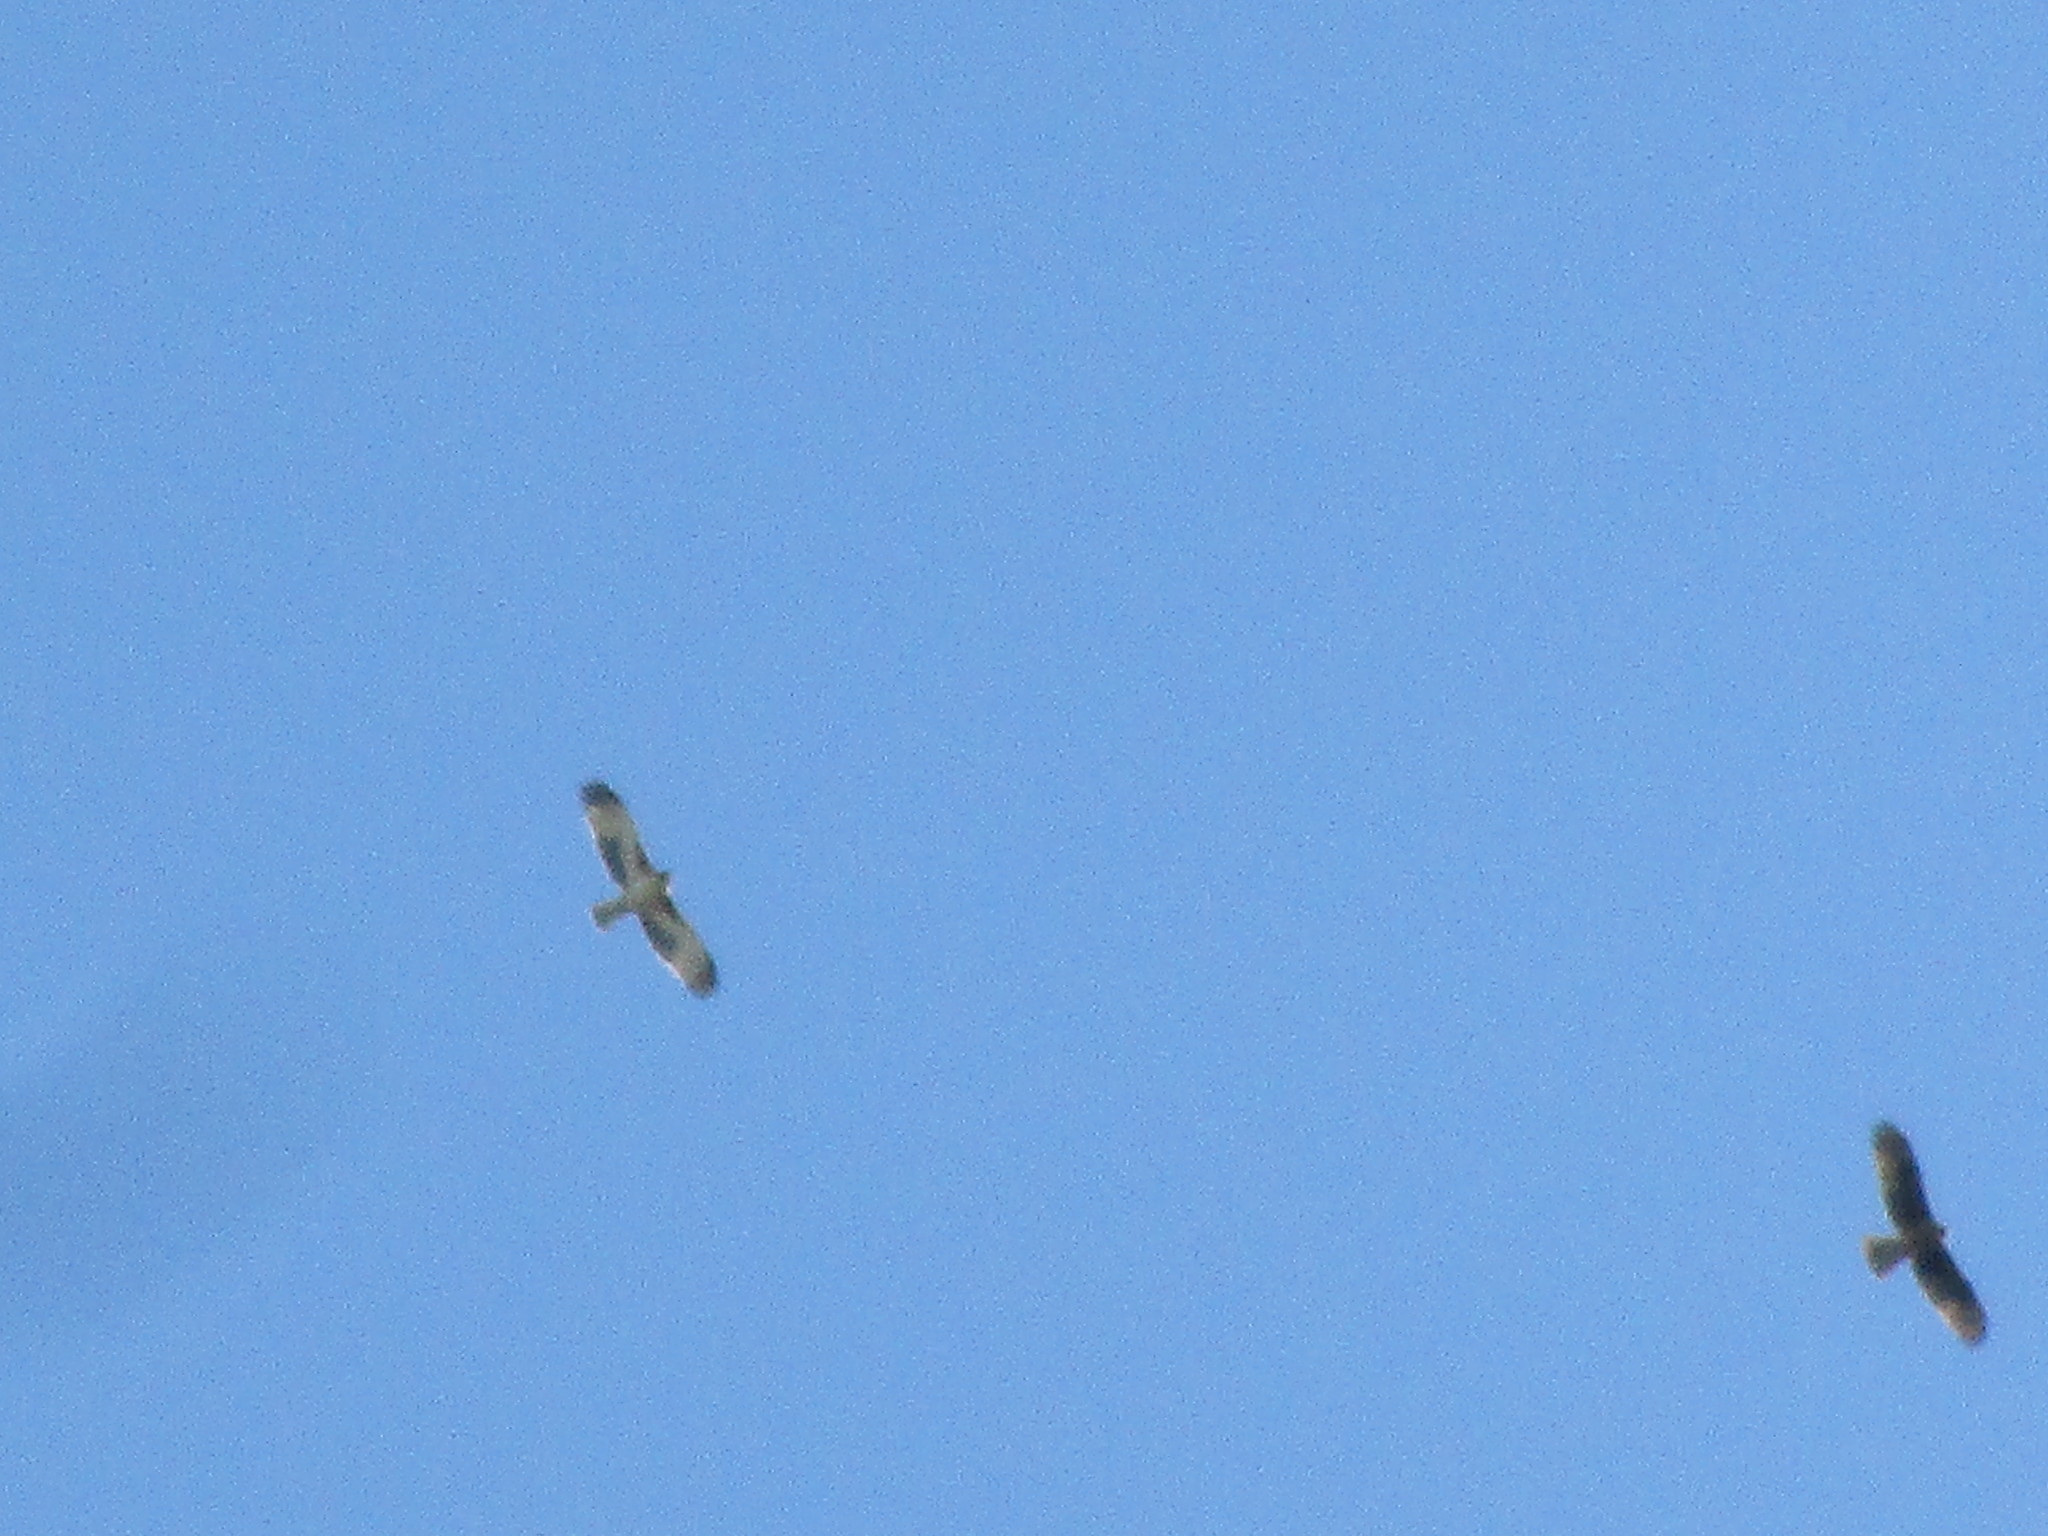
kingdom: Animalia
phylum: Chordata
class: Aves
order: Accipitriformes
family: Accipitridae
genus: Hieraaetus
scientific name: Hieraaetus morphnoides
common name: Little eagle
